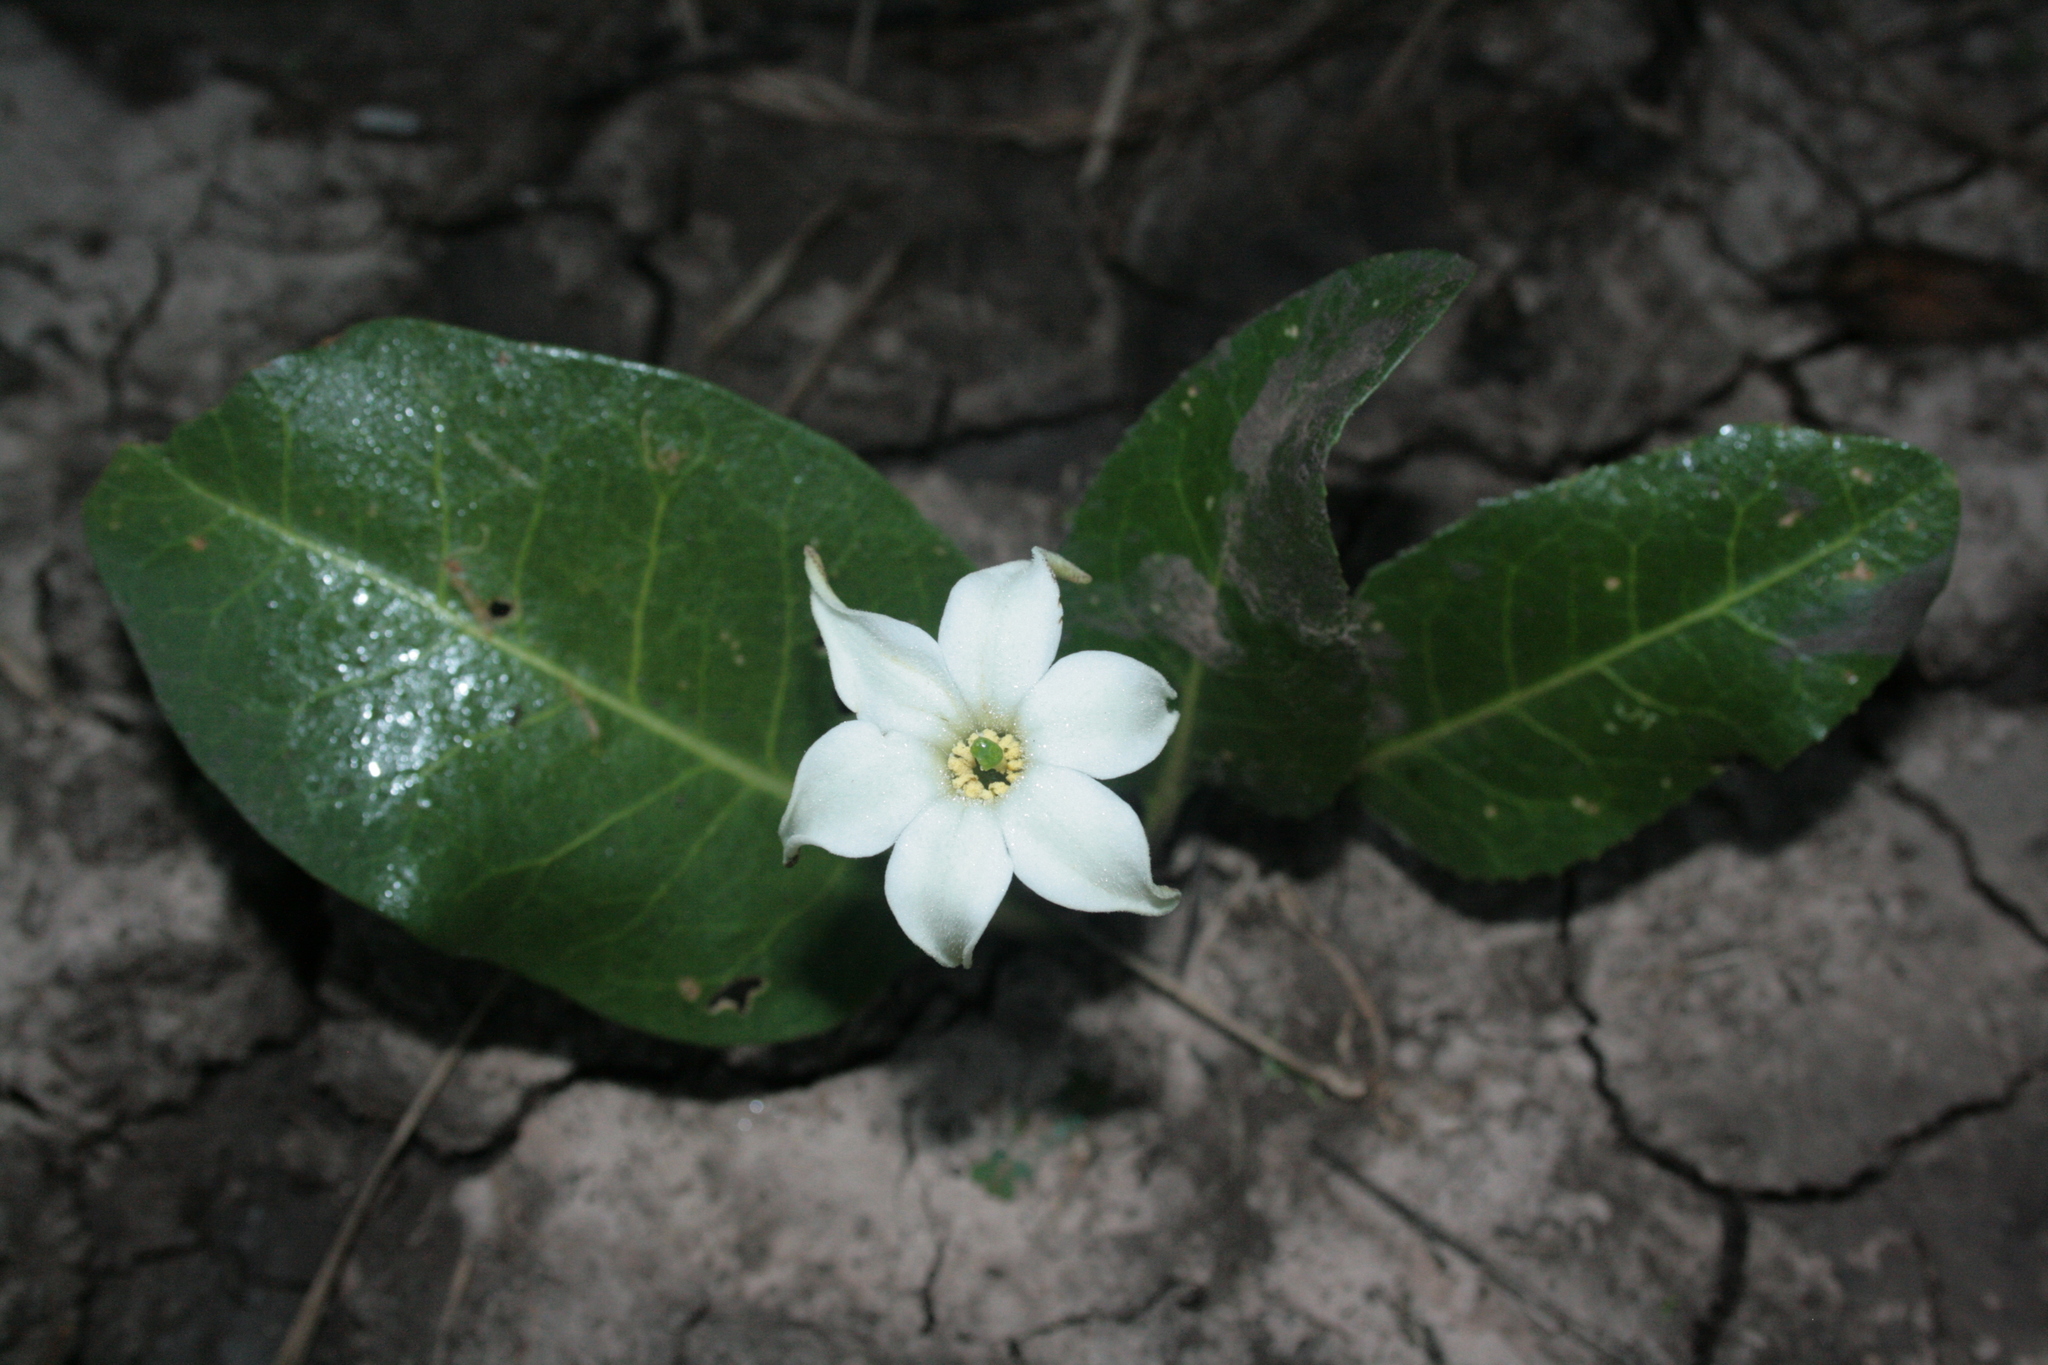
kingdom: Plantae
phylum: Tracheophyta
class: Magnoliopsida
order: Solanales
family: Solanaceae
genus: Jaborosa
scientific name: Jaborosa integrifolia
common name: Springblossom
